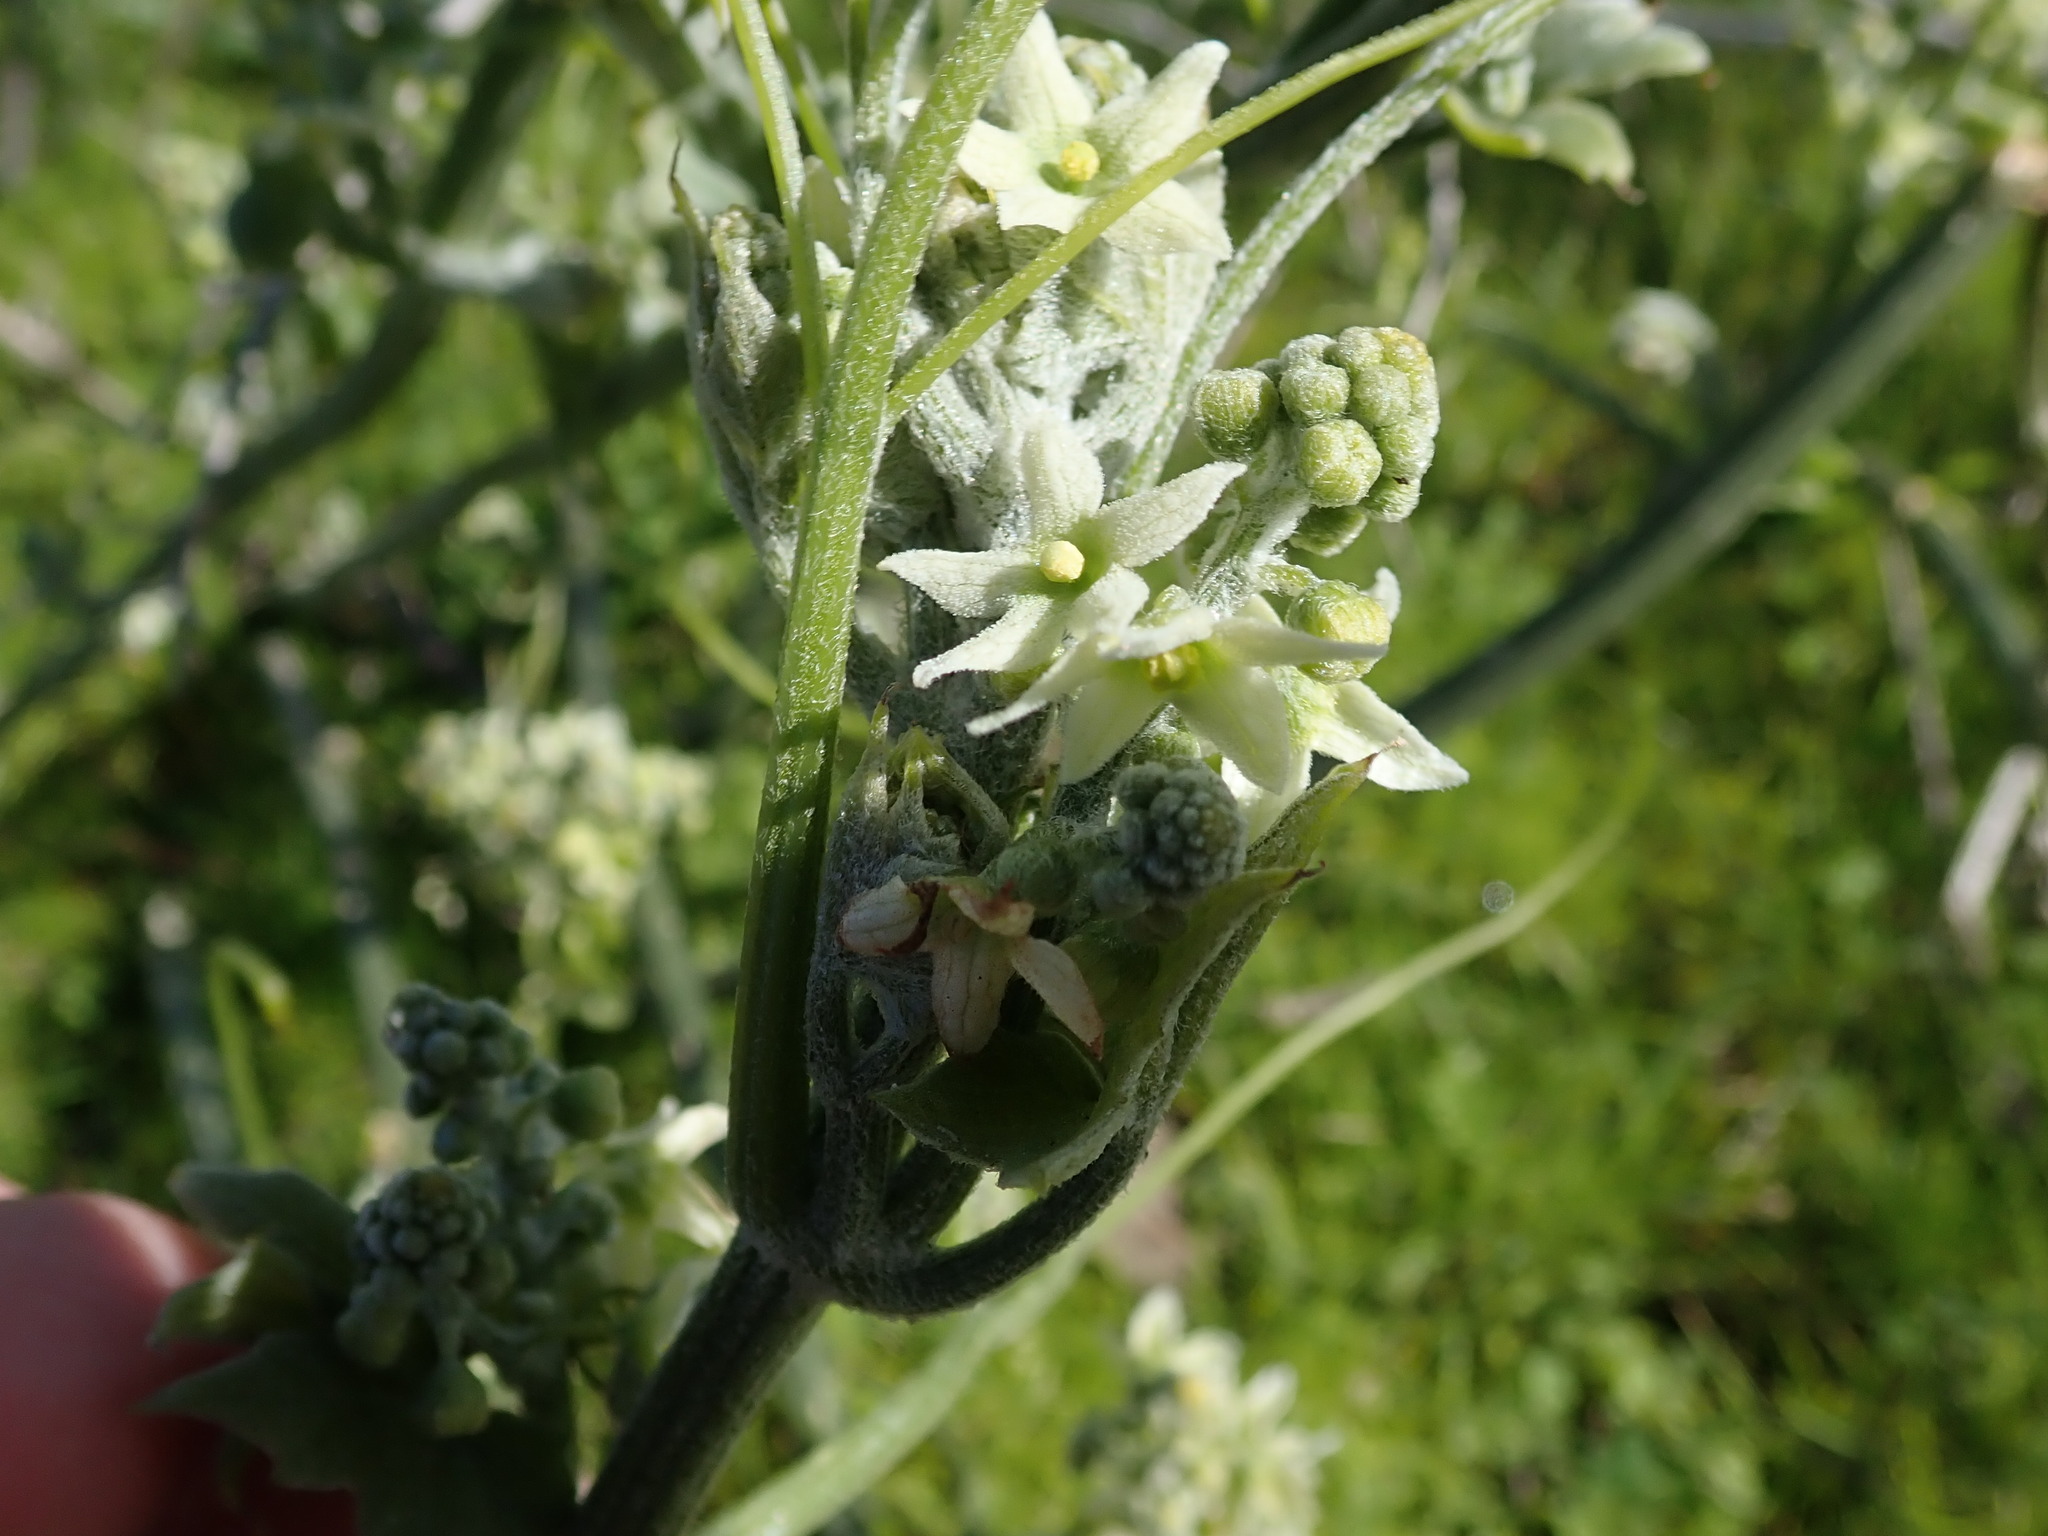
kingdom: Plantae
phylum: Tracheophyta
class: Magnoliopsida
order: Cucurbitales
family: Cucurbitaceae
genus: Marah
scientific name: Marah fabacea
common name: California manroot
